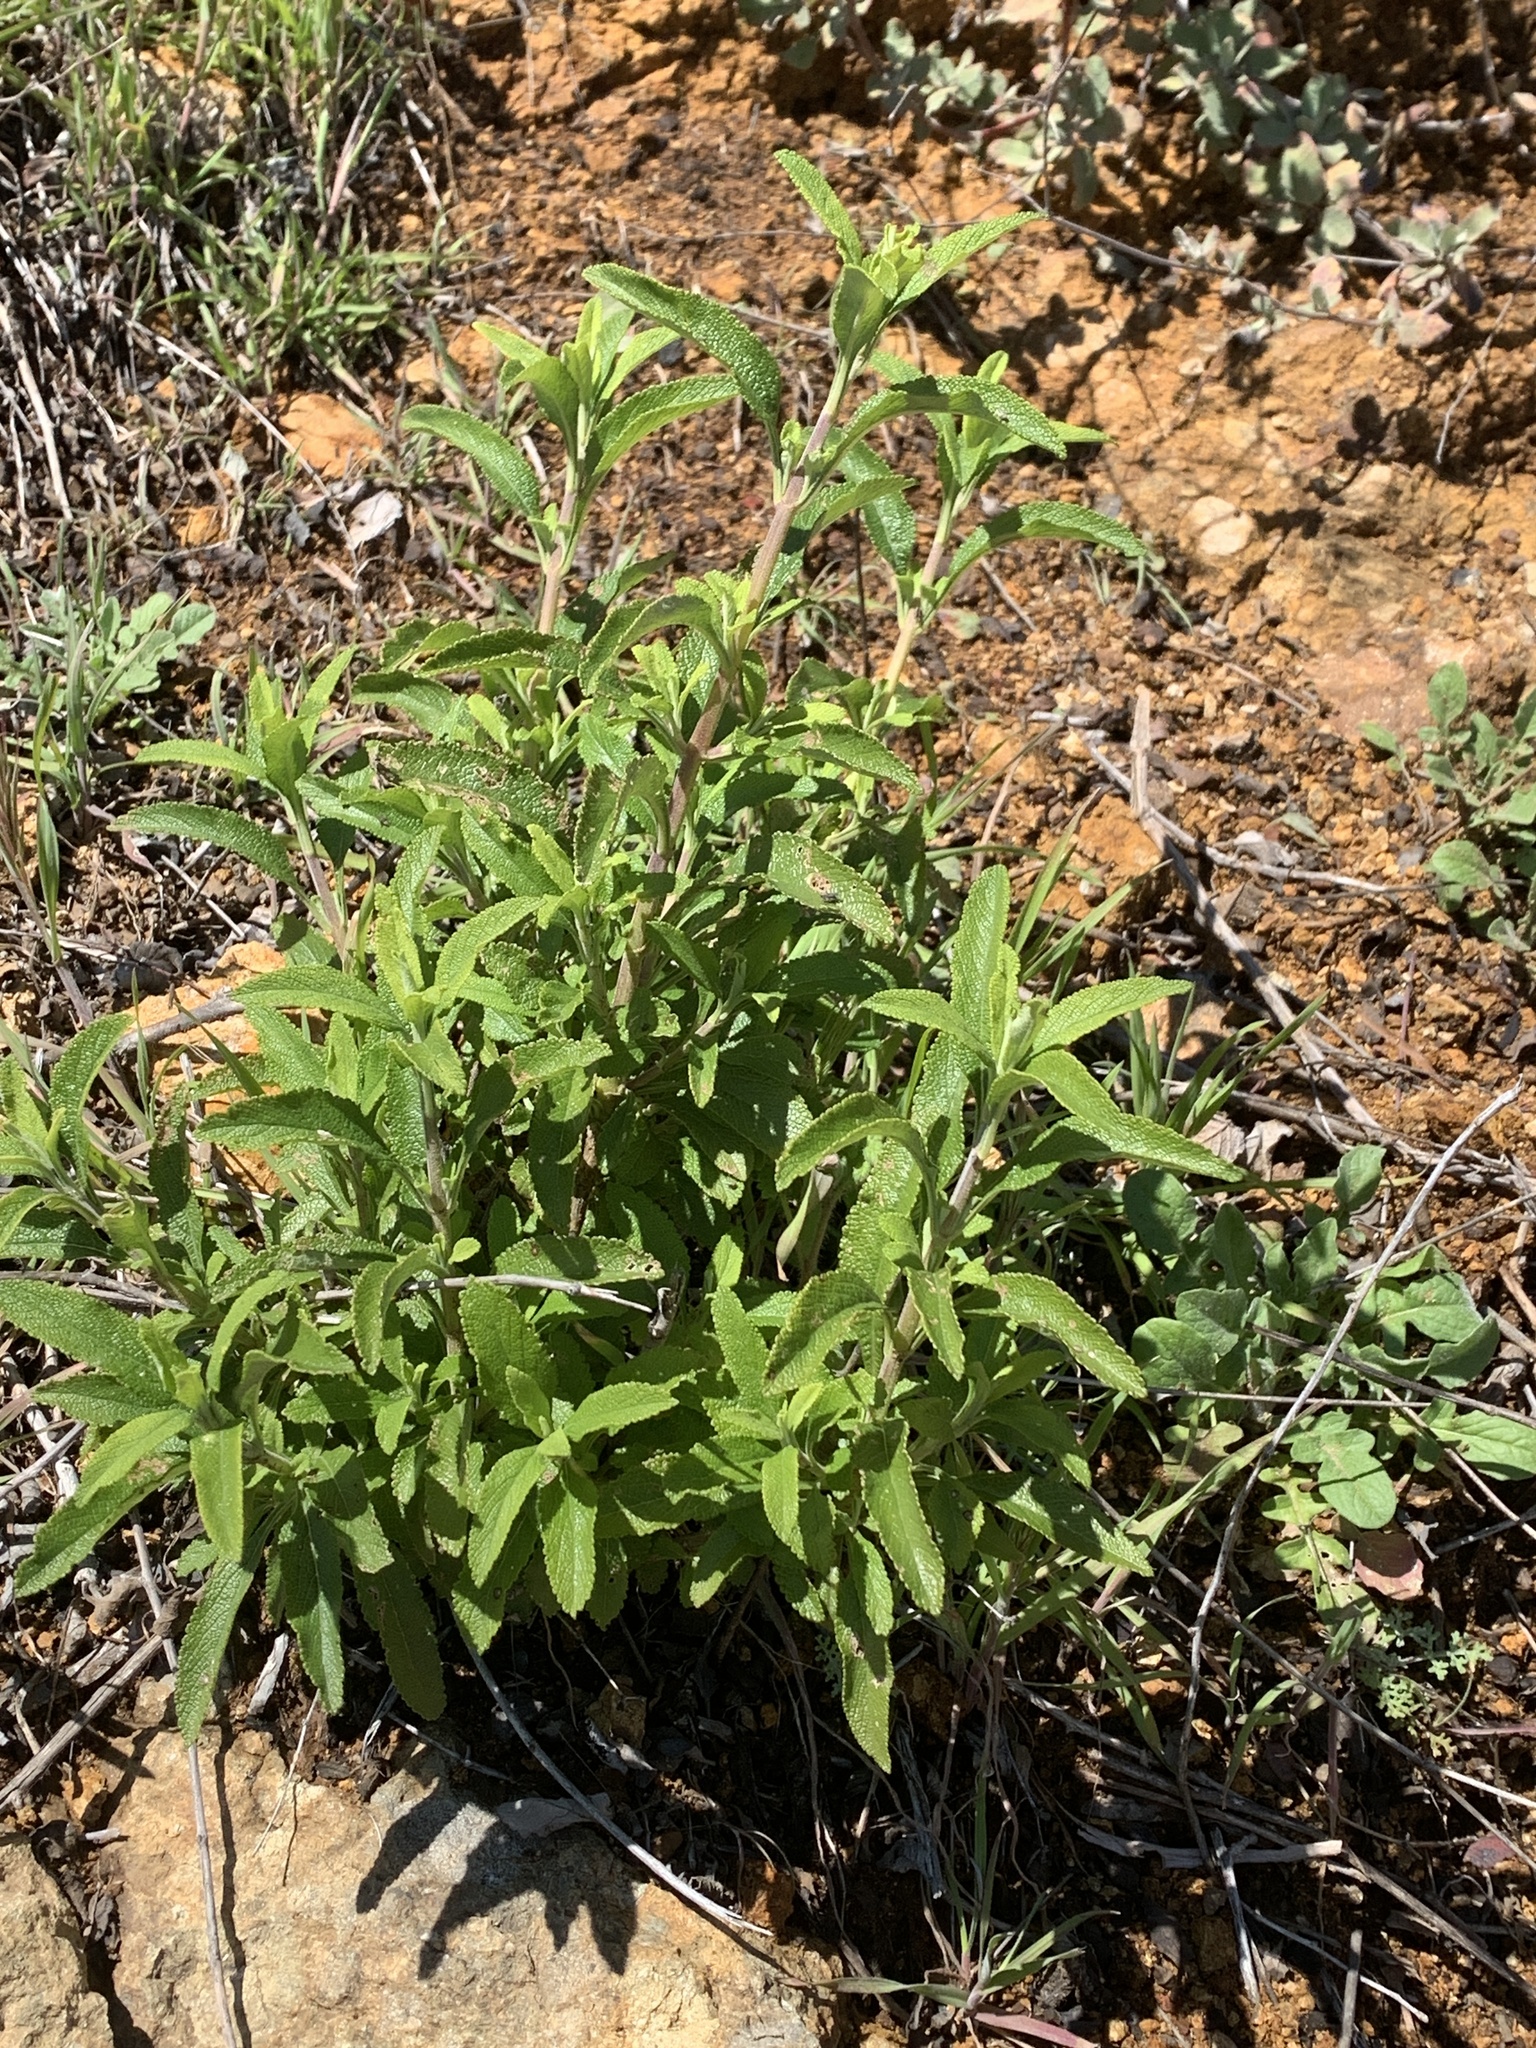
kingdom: Plantae
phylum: Tracheophyta
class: Magnoliopsida
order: Lamiales
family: Lamiaceae
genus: Salvia
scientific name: Salvia mellifera
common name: Black sage
